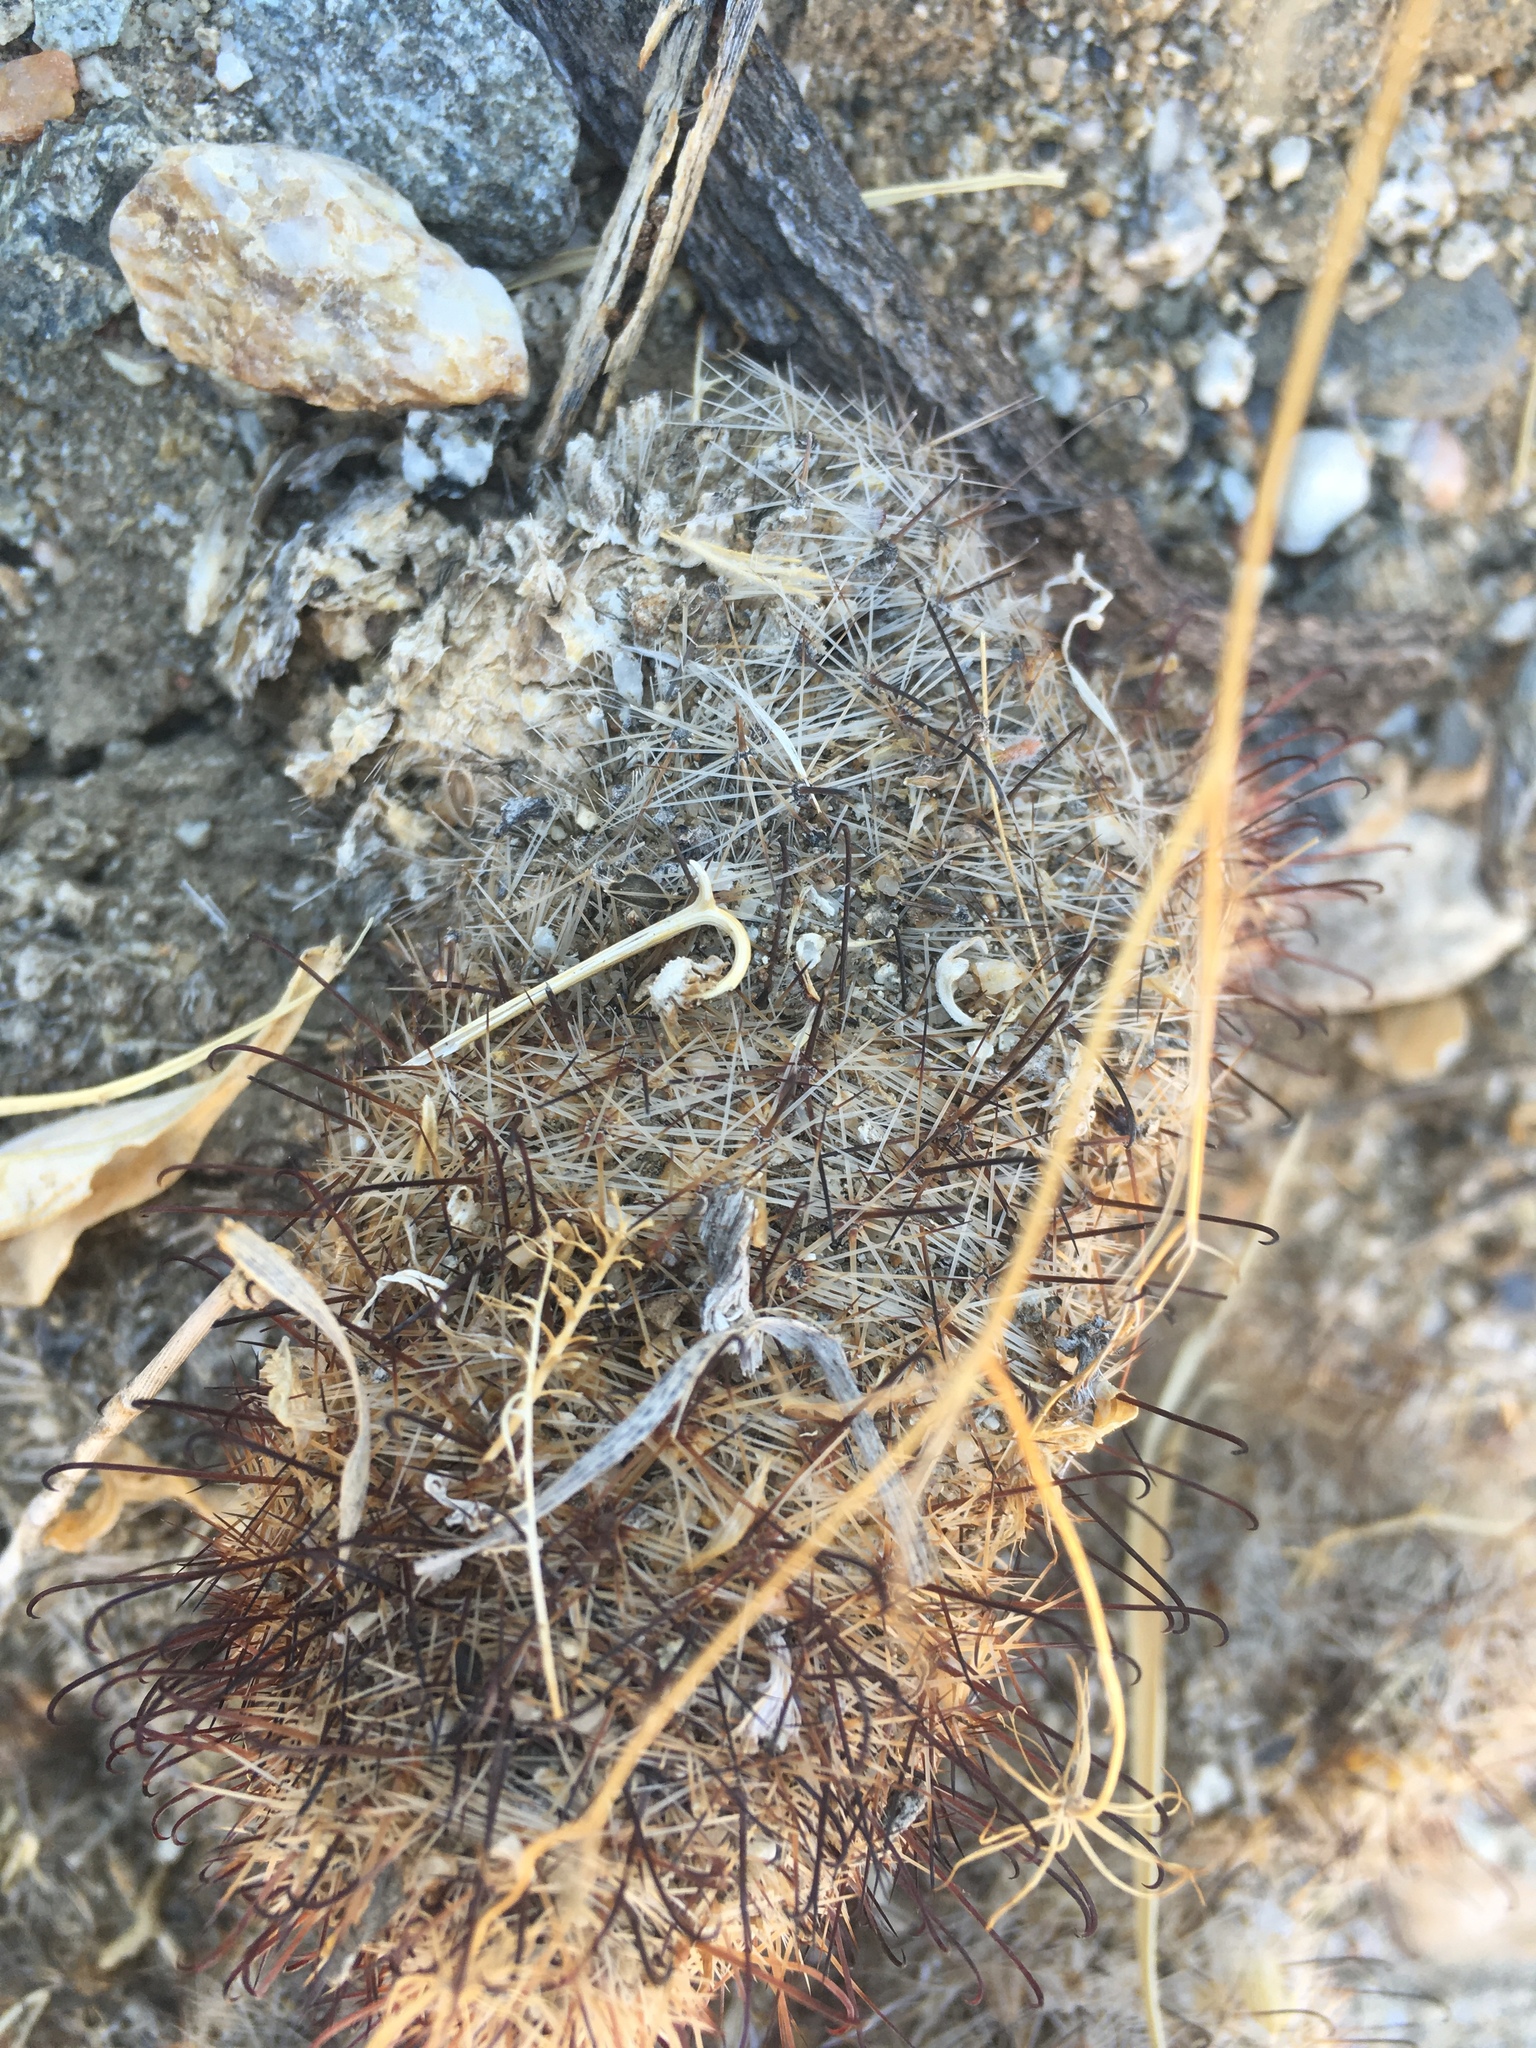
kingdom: Plantae
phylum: Tracheophyta
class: Magnoliopsida
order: Caryophyllales
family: Cactaceae
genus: Cochemiea
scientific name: Cochemiea dioica
